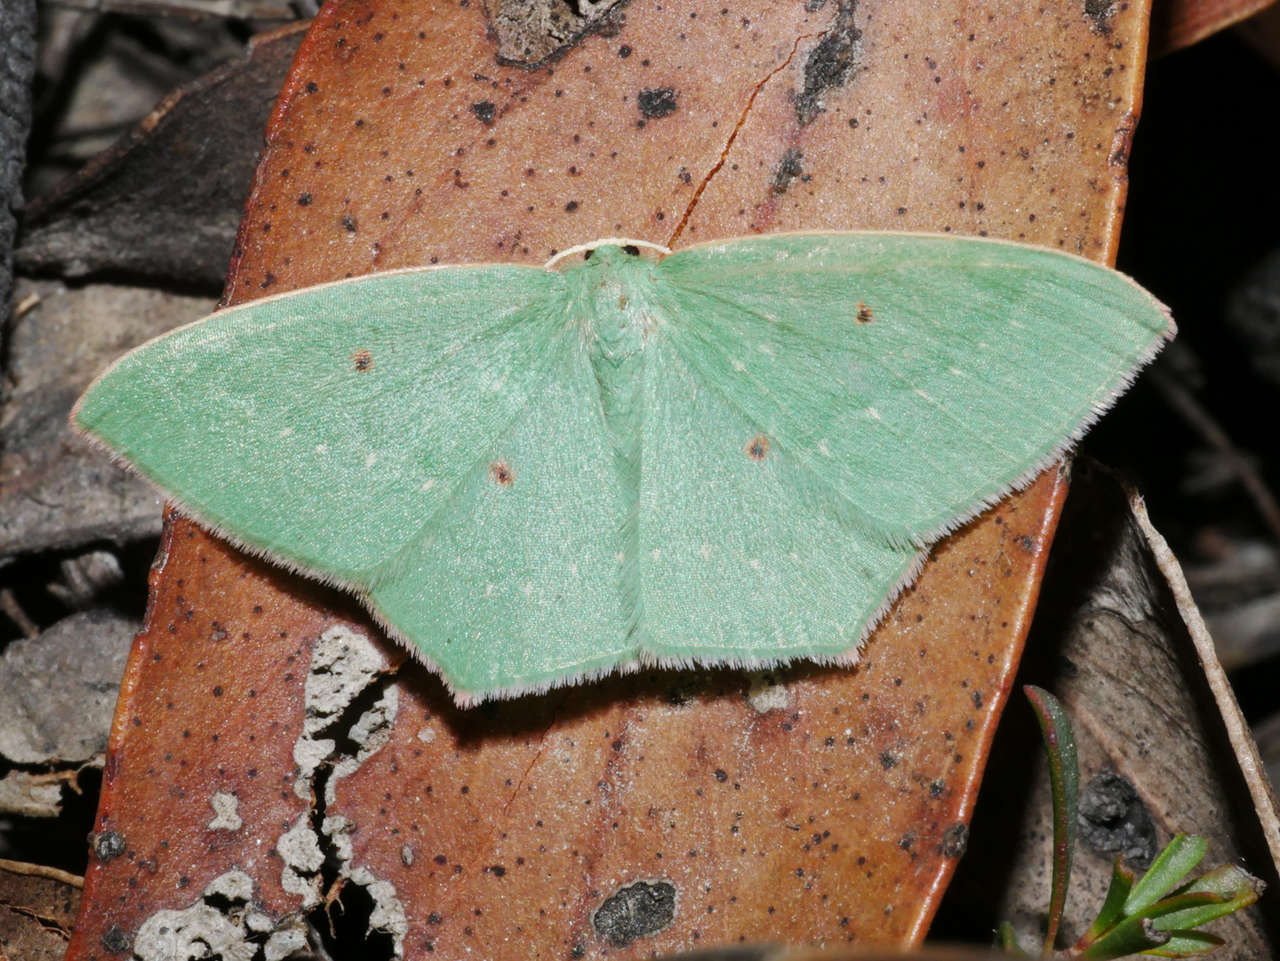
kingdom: Animalia
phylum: Arthropoda
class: Insecta
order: Lepidoptera
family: Geometridae
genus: Chlorocoma
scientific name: Chlorocoma tetraspila
